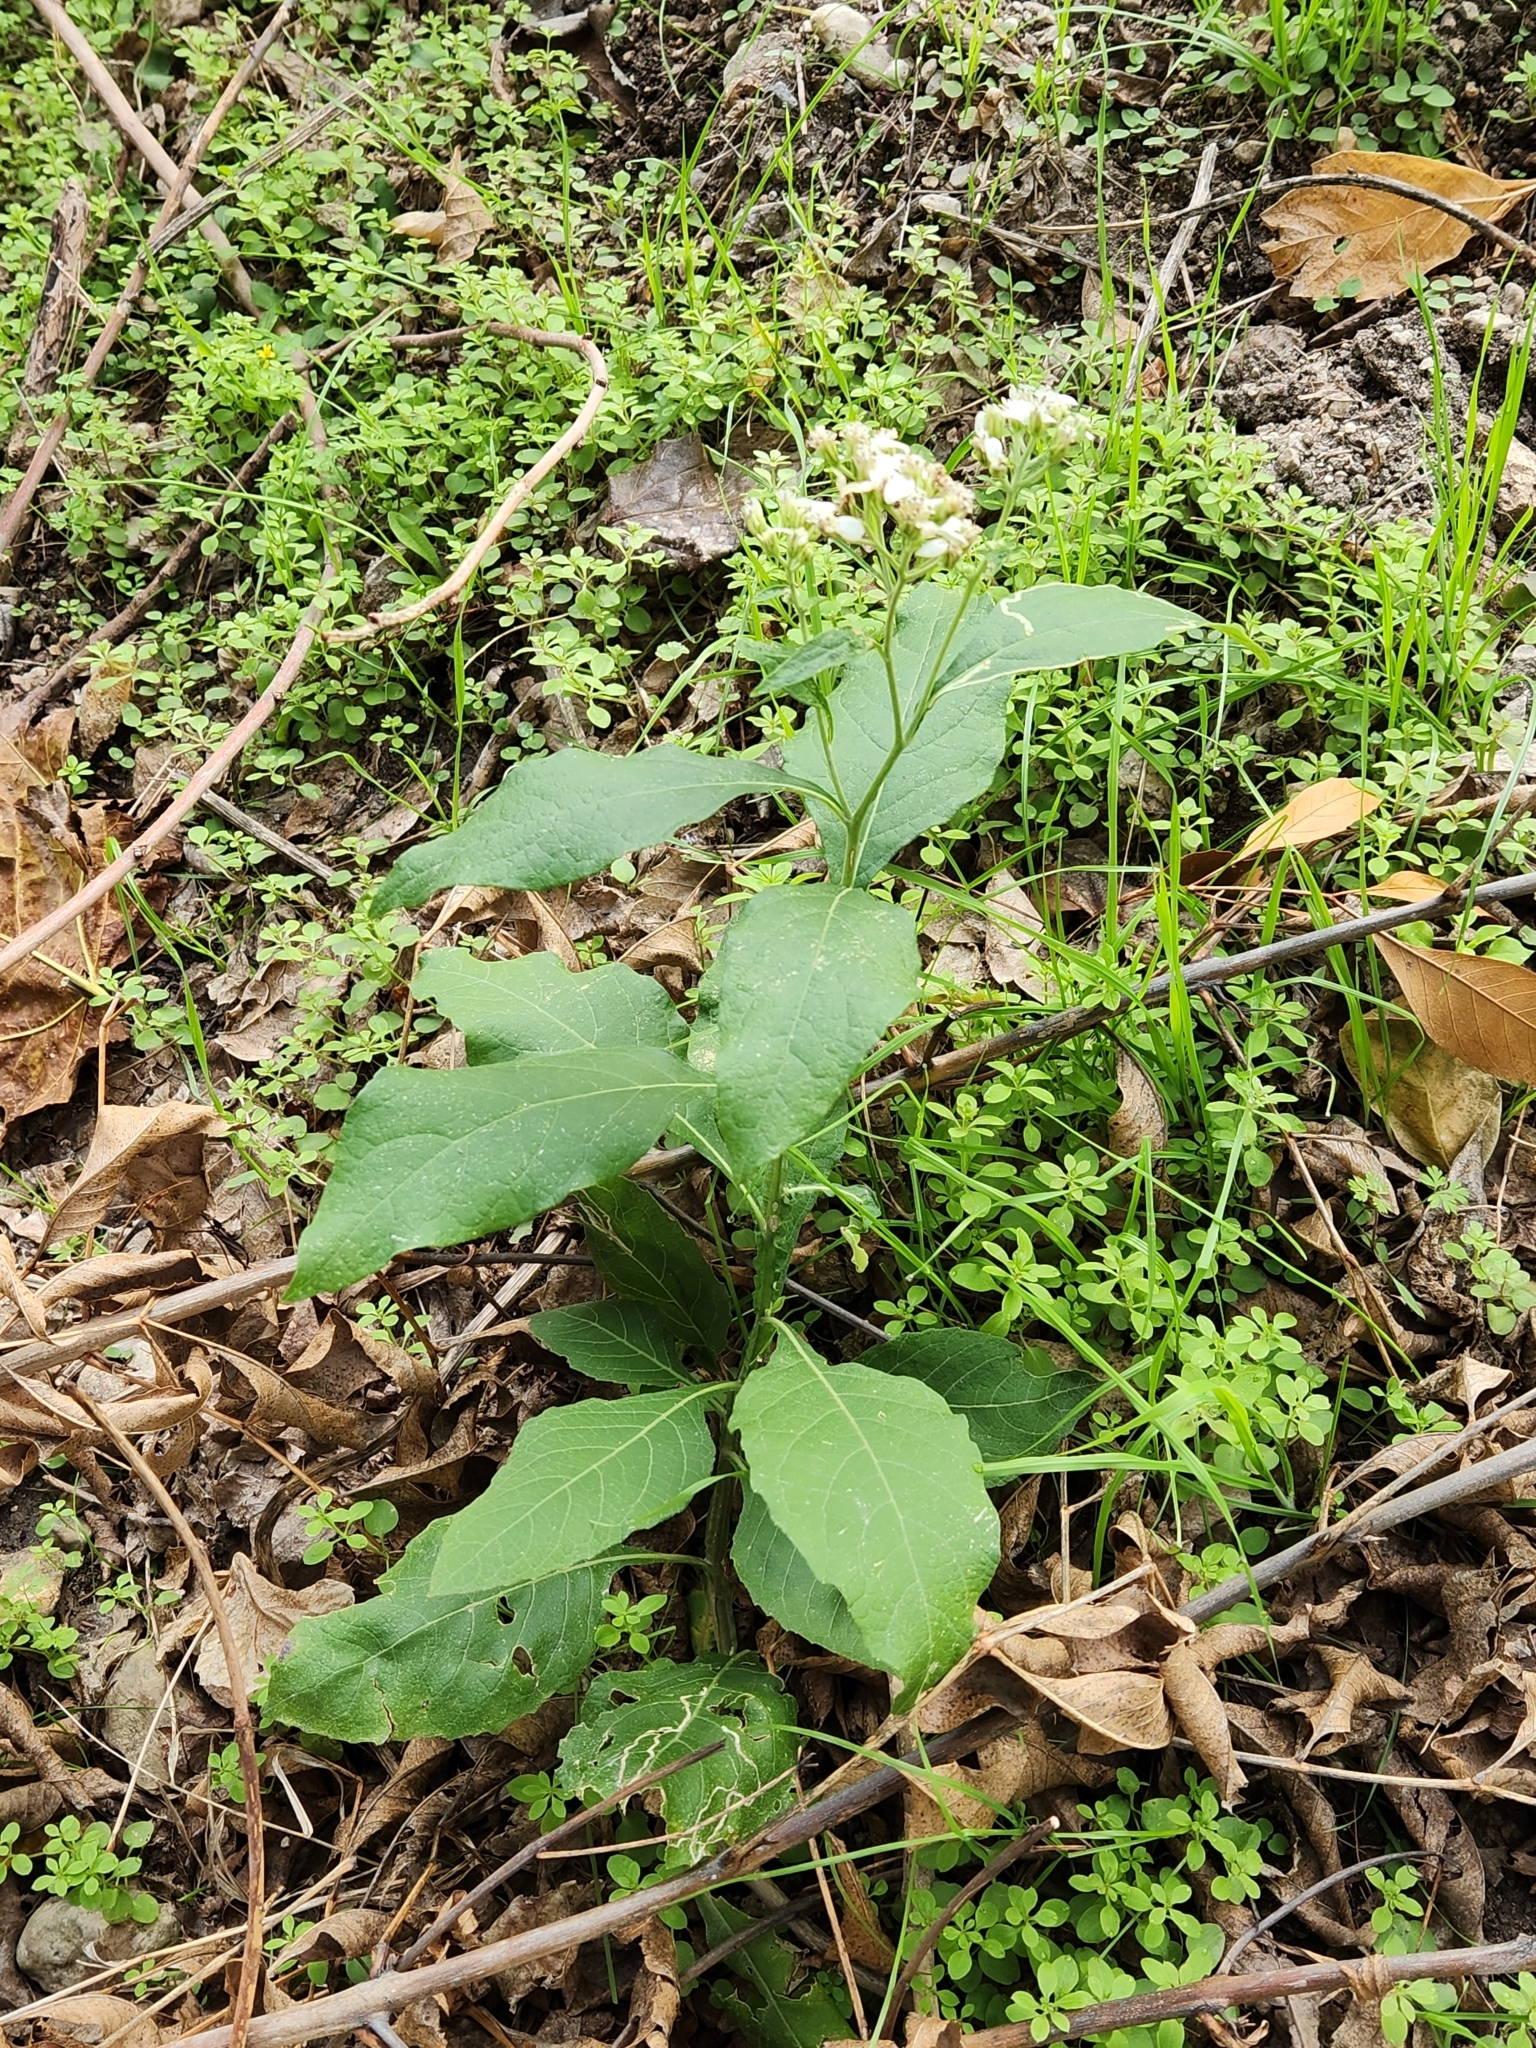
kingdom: Plantae
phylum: Tracheophyta
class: Magnoliopsida
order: Asterales
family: Asteraceae
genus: Verbesina
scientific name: Verbesina virginica
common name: Frostweed
